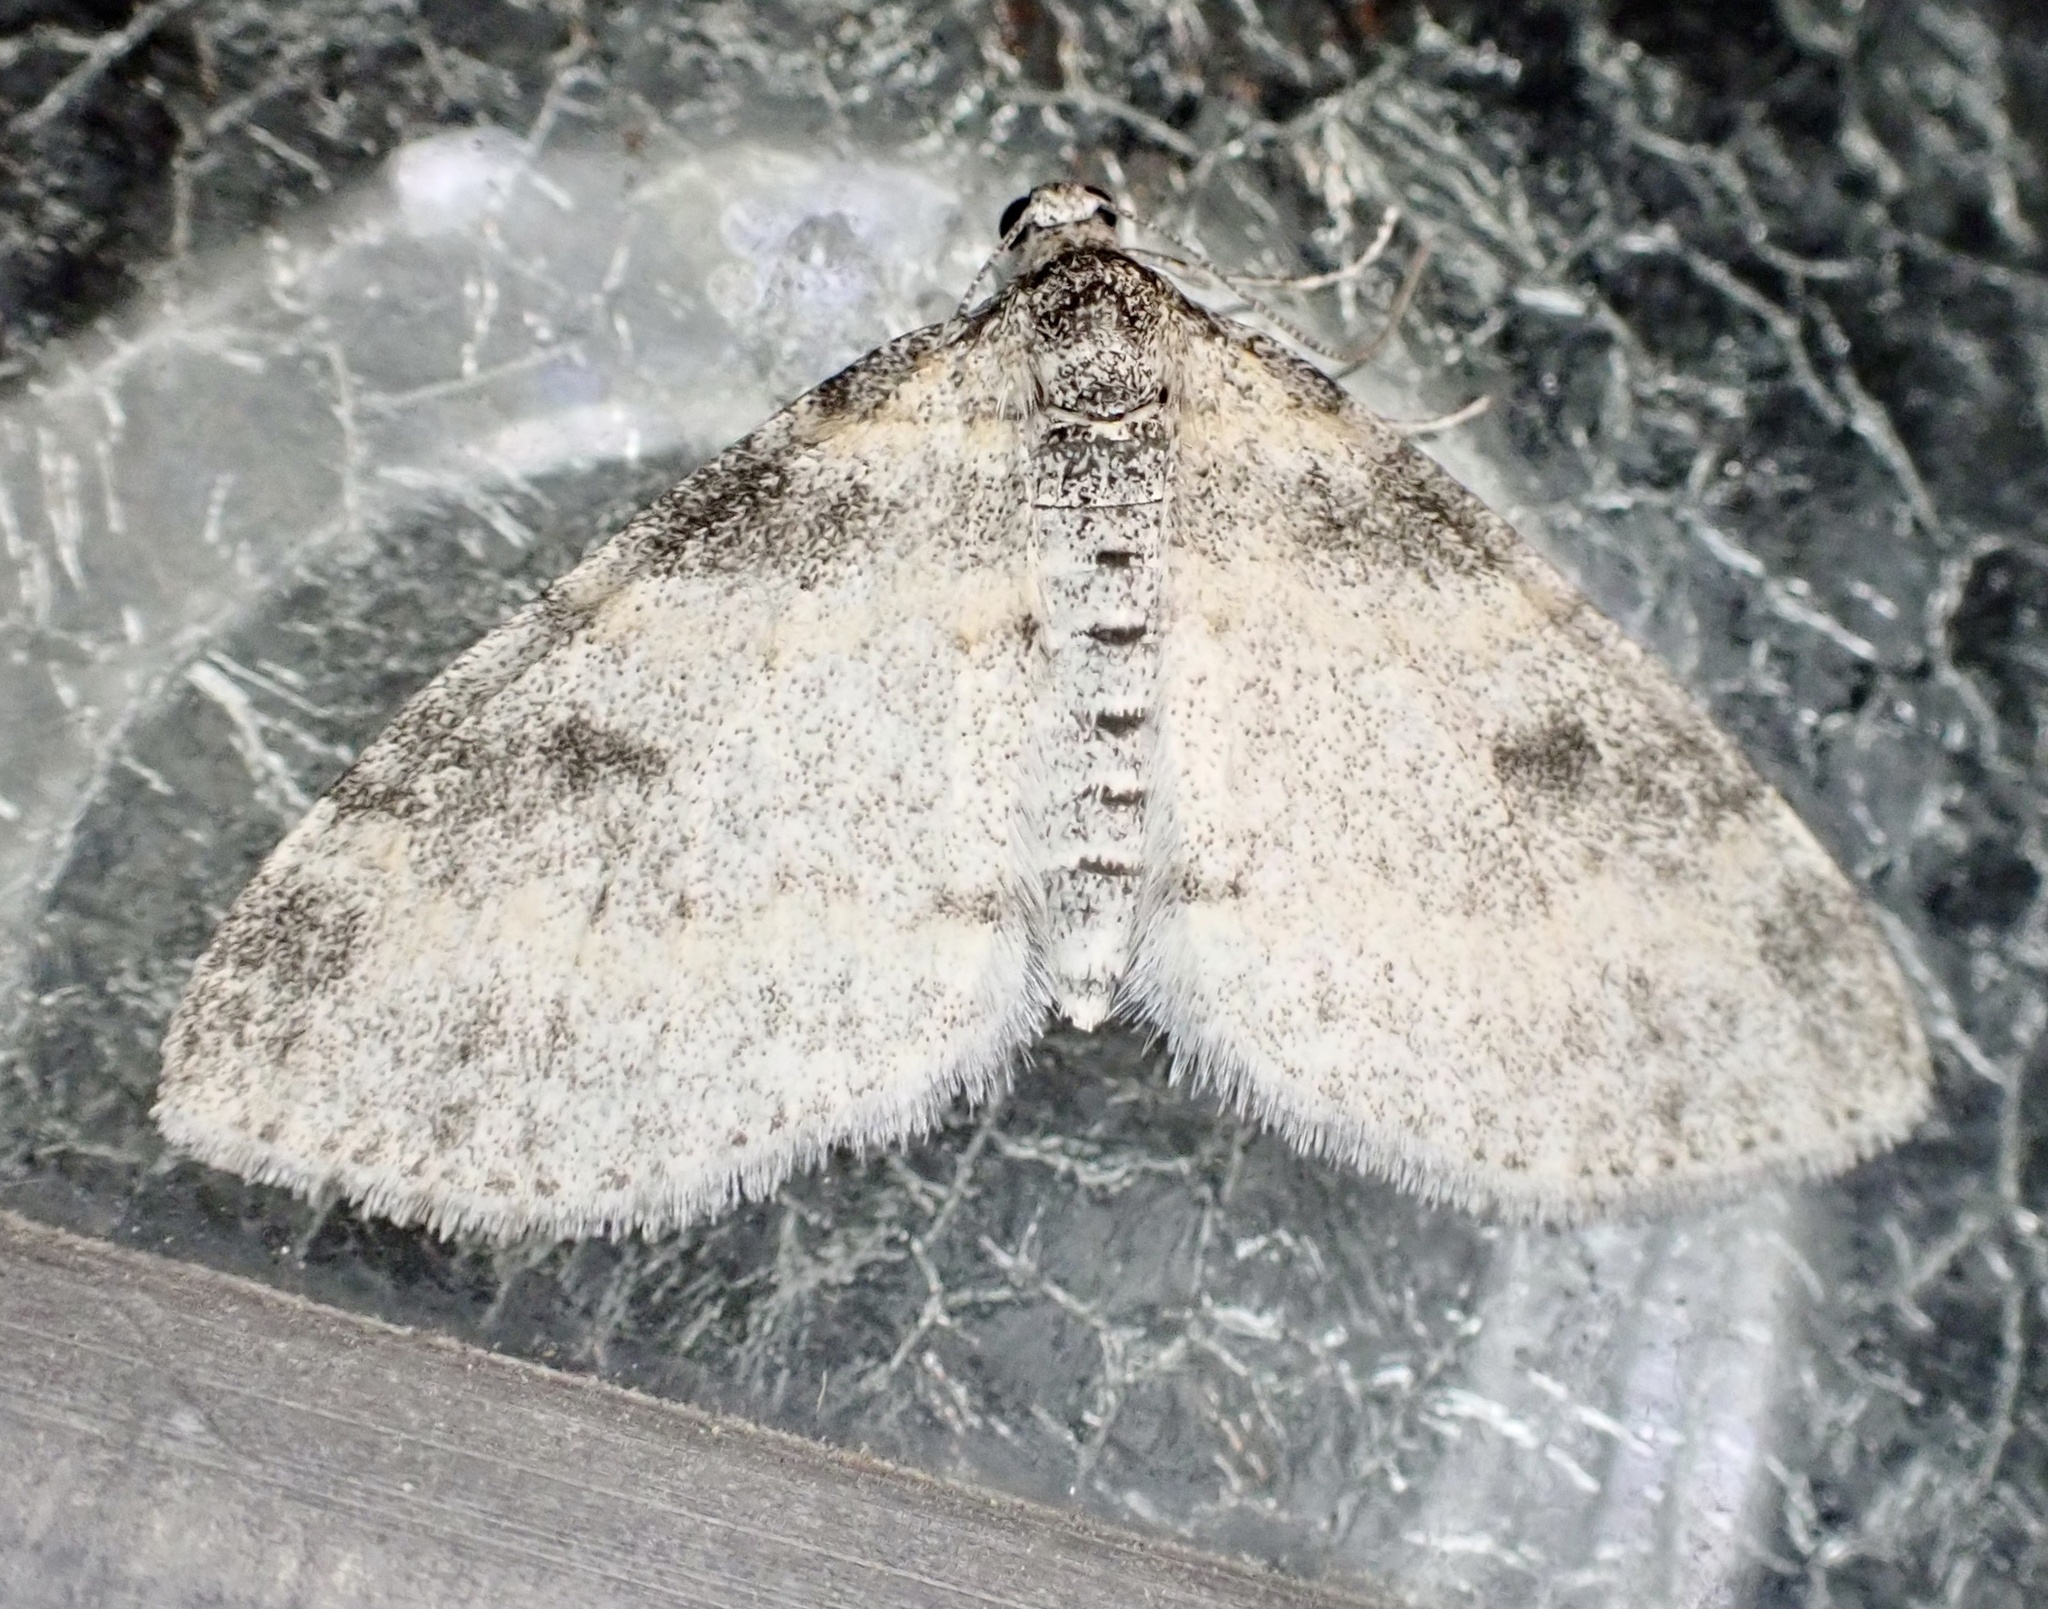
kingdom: Animalia
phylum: Arthropoda
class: Insecta
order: Lepidoptera
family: Geometridae
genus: Lobophora
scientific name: Lobophora nivigerata
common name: Powdered bigwing
